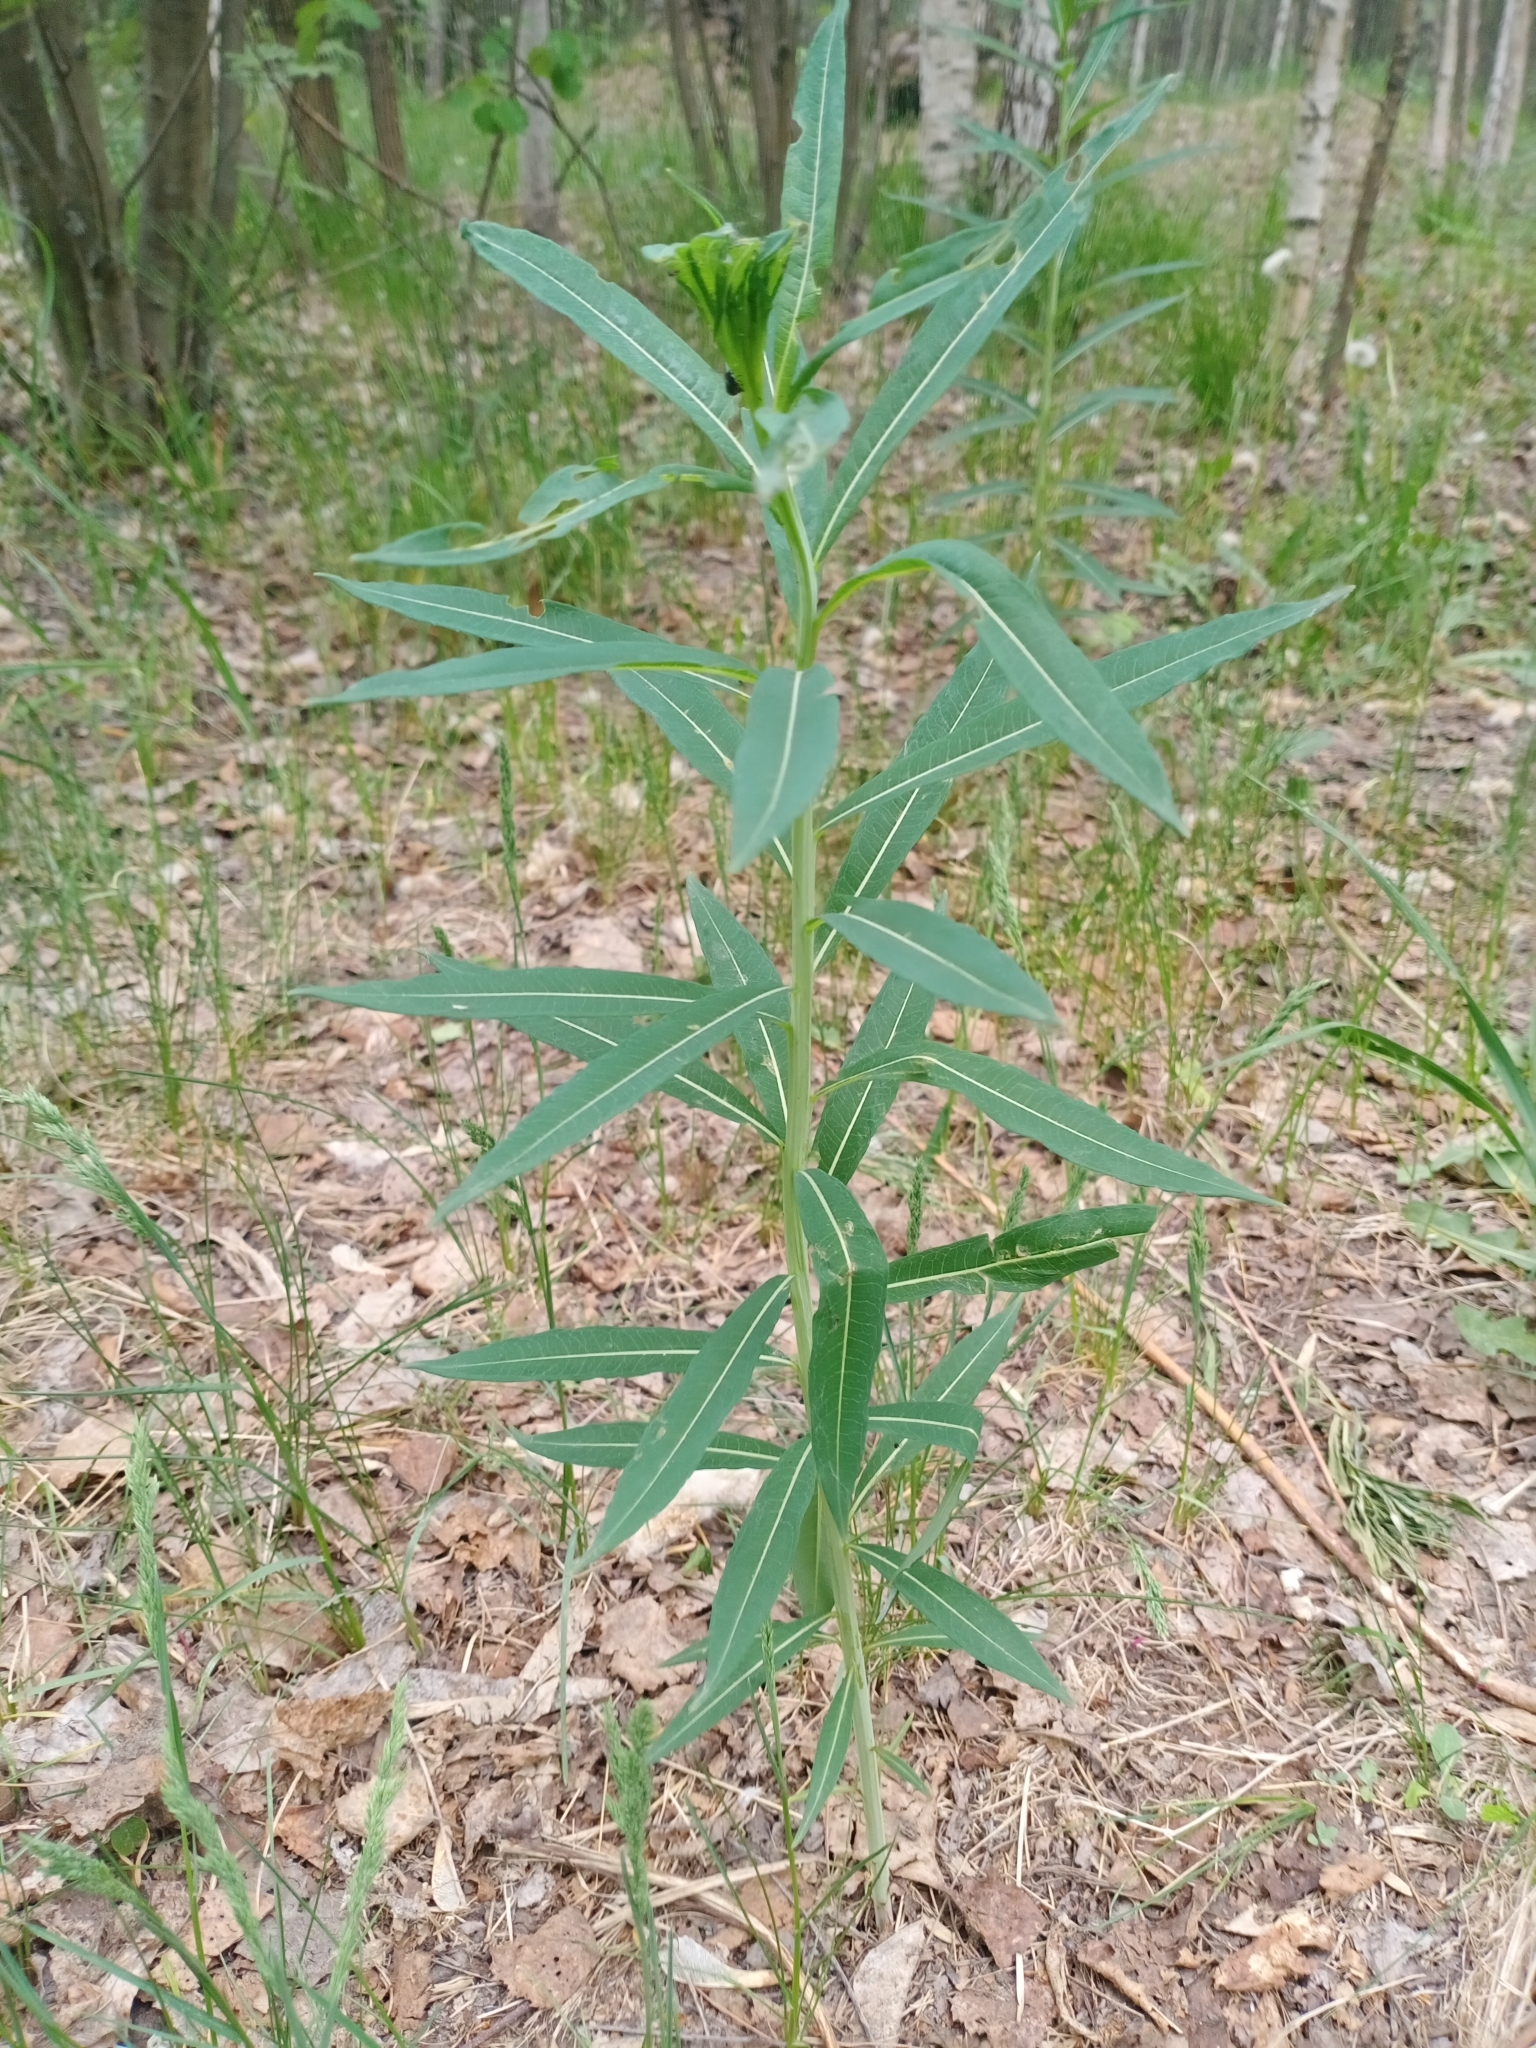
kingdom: Plantae
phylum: Tracheophyta
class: Magnoliopsida
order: Myrtales
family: Onagraceae
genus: Chamaenerion
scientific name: Chamaenerion angustifolium
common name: Fireweed
